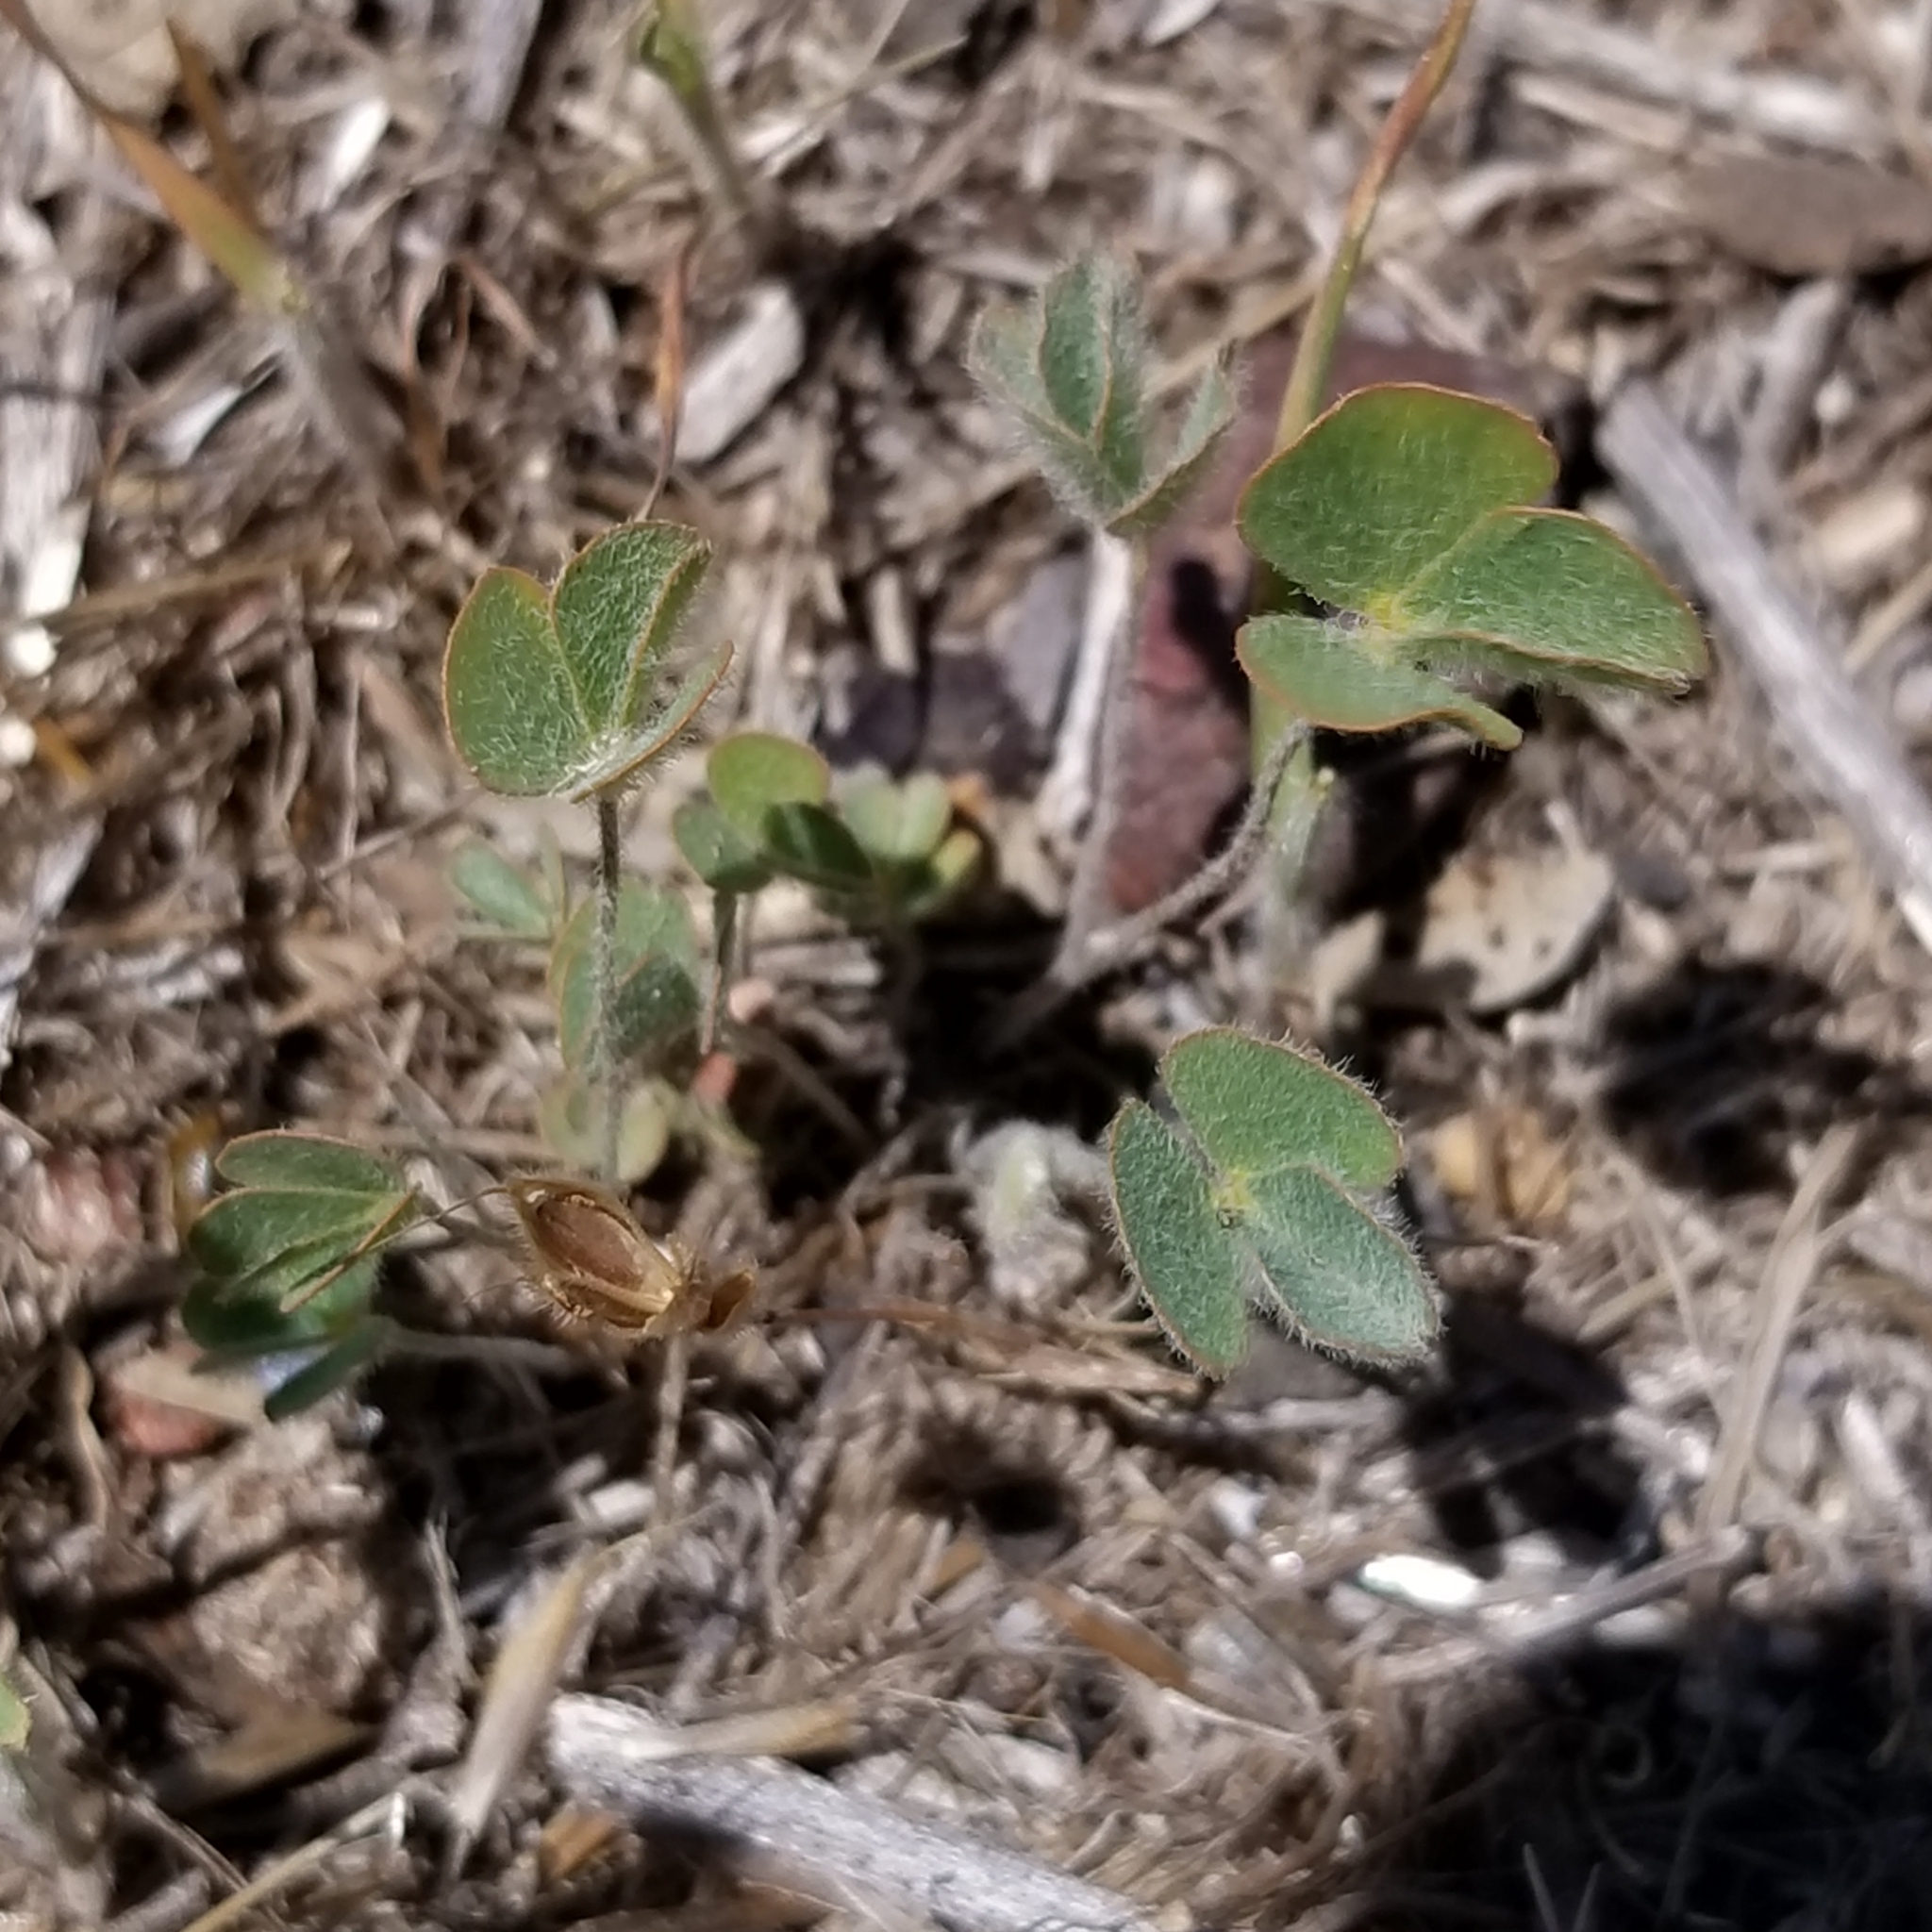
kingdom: Plantae
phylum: Tracheophyta
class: Polypodiopsida
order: Salviniales
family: Marsileaceae
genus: Marsilea
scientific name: Marsilea vestita
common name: Hooked-pepperwort
